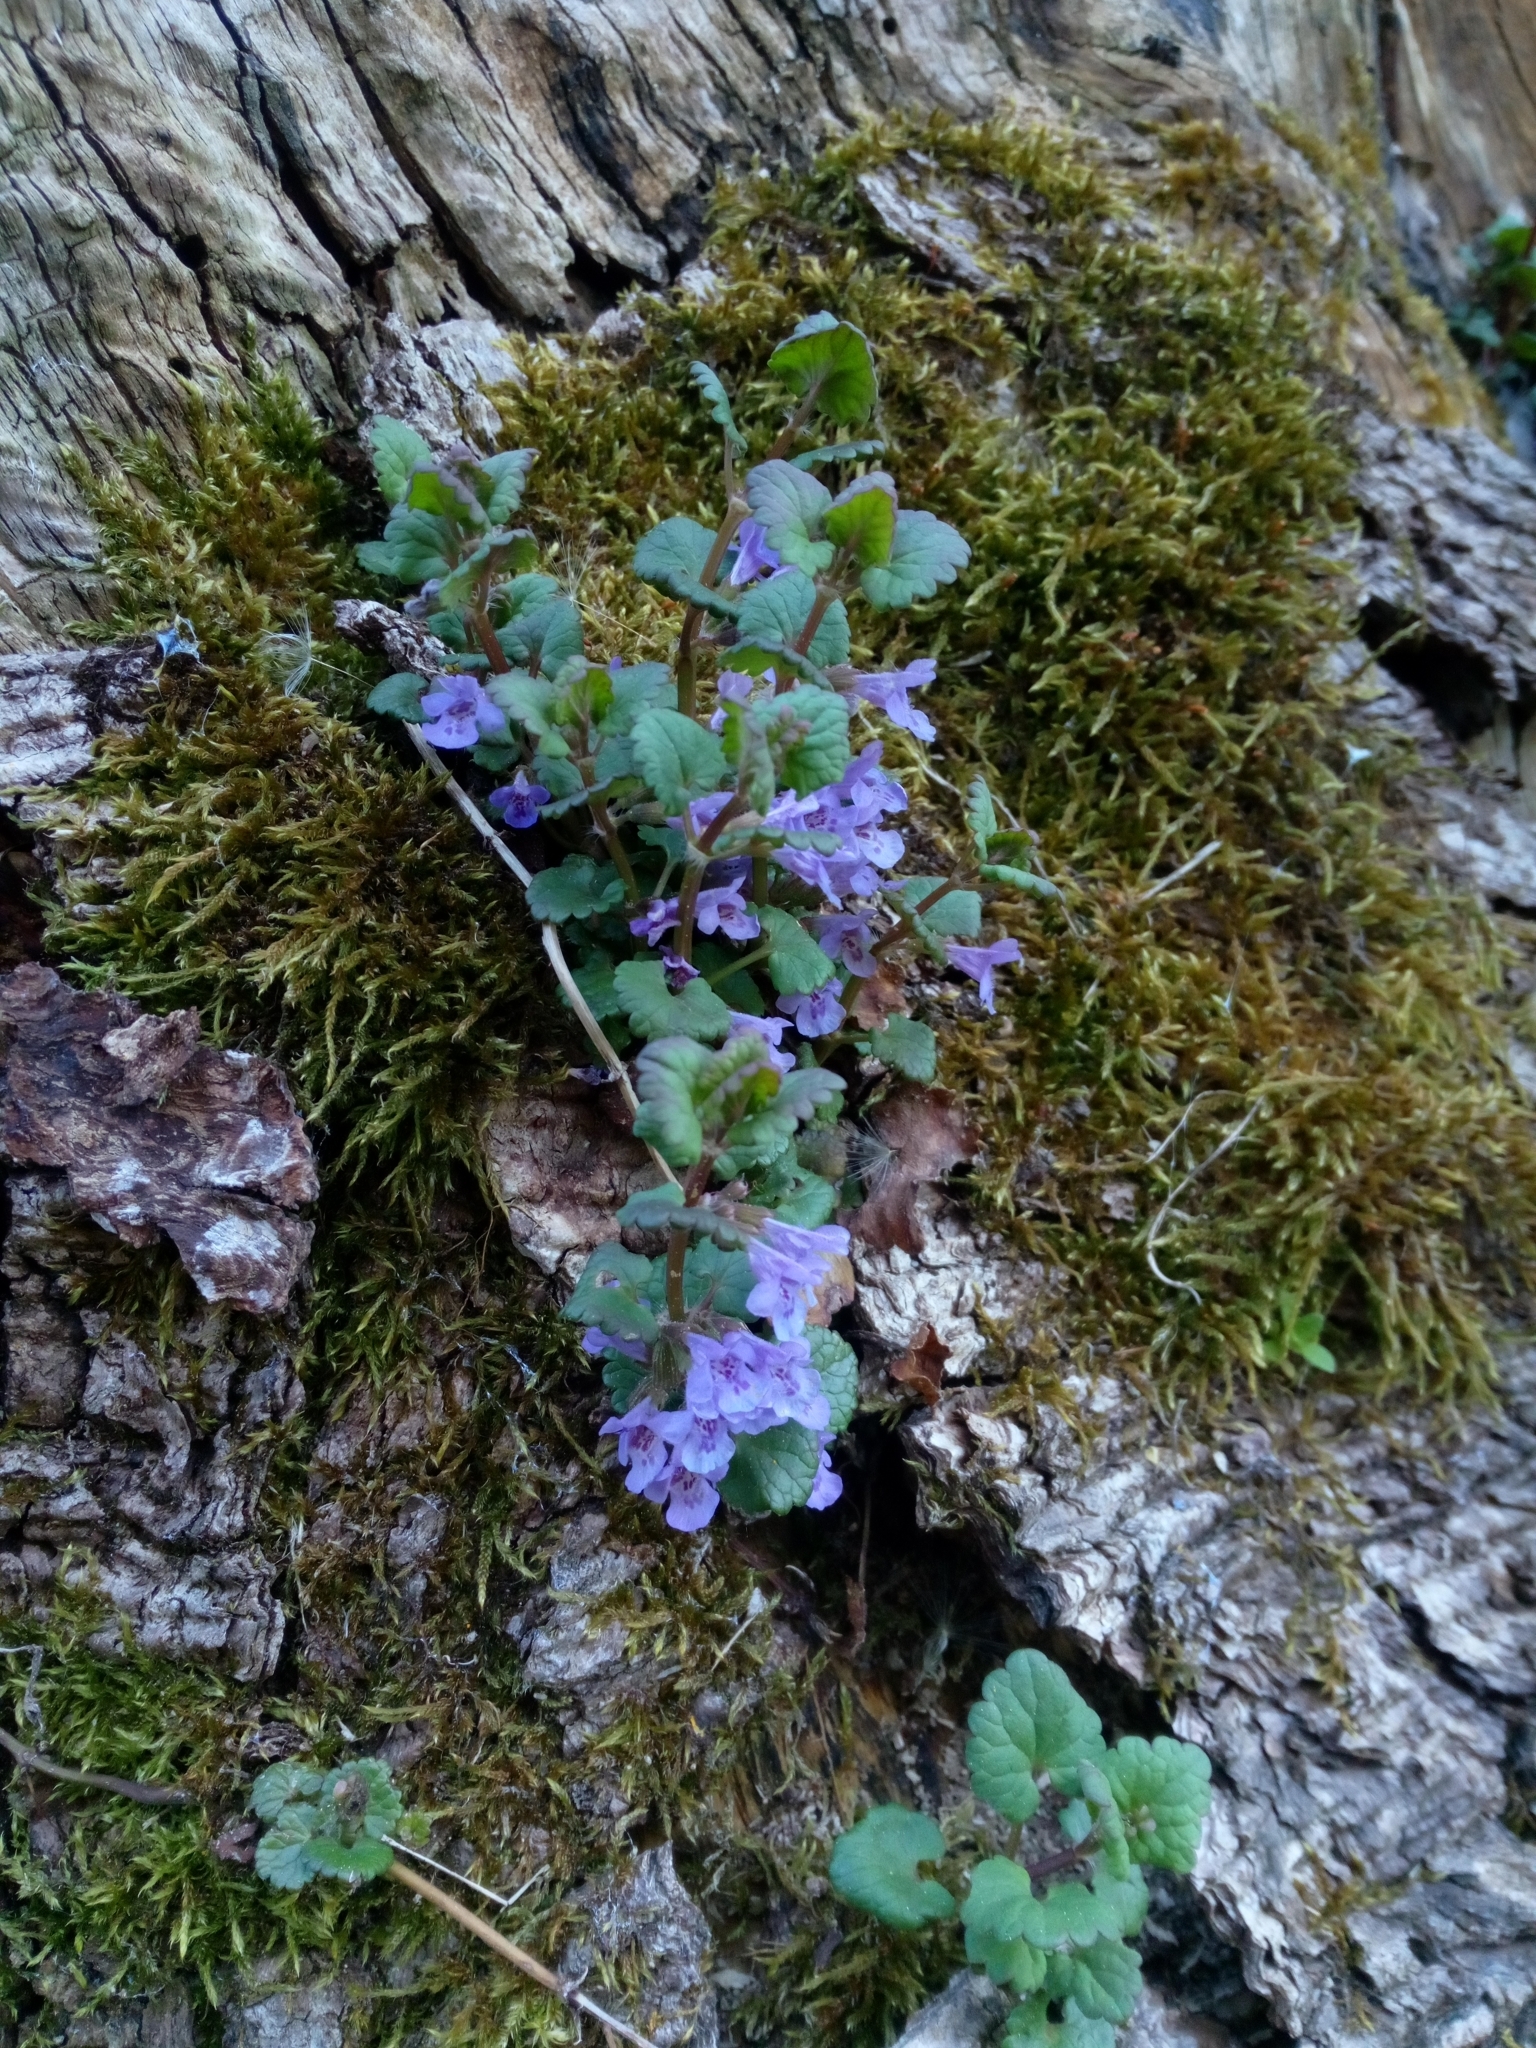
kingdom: Plantae
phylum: Tracheophyta
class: Magnoliopsida
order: Lamiales
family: Lamiaceae
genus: Glechoma
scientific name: Glechoma hederacea
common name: Ground ivy
